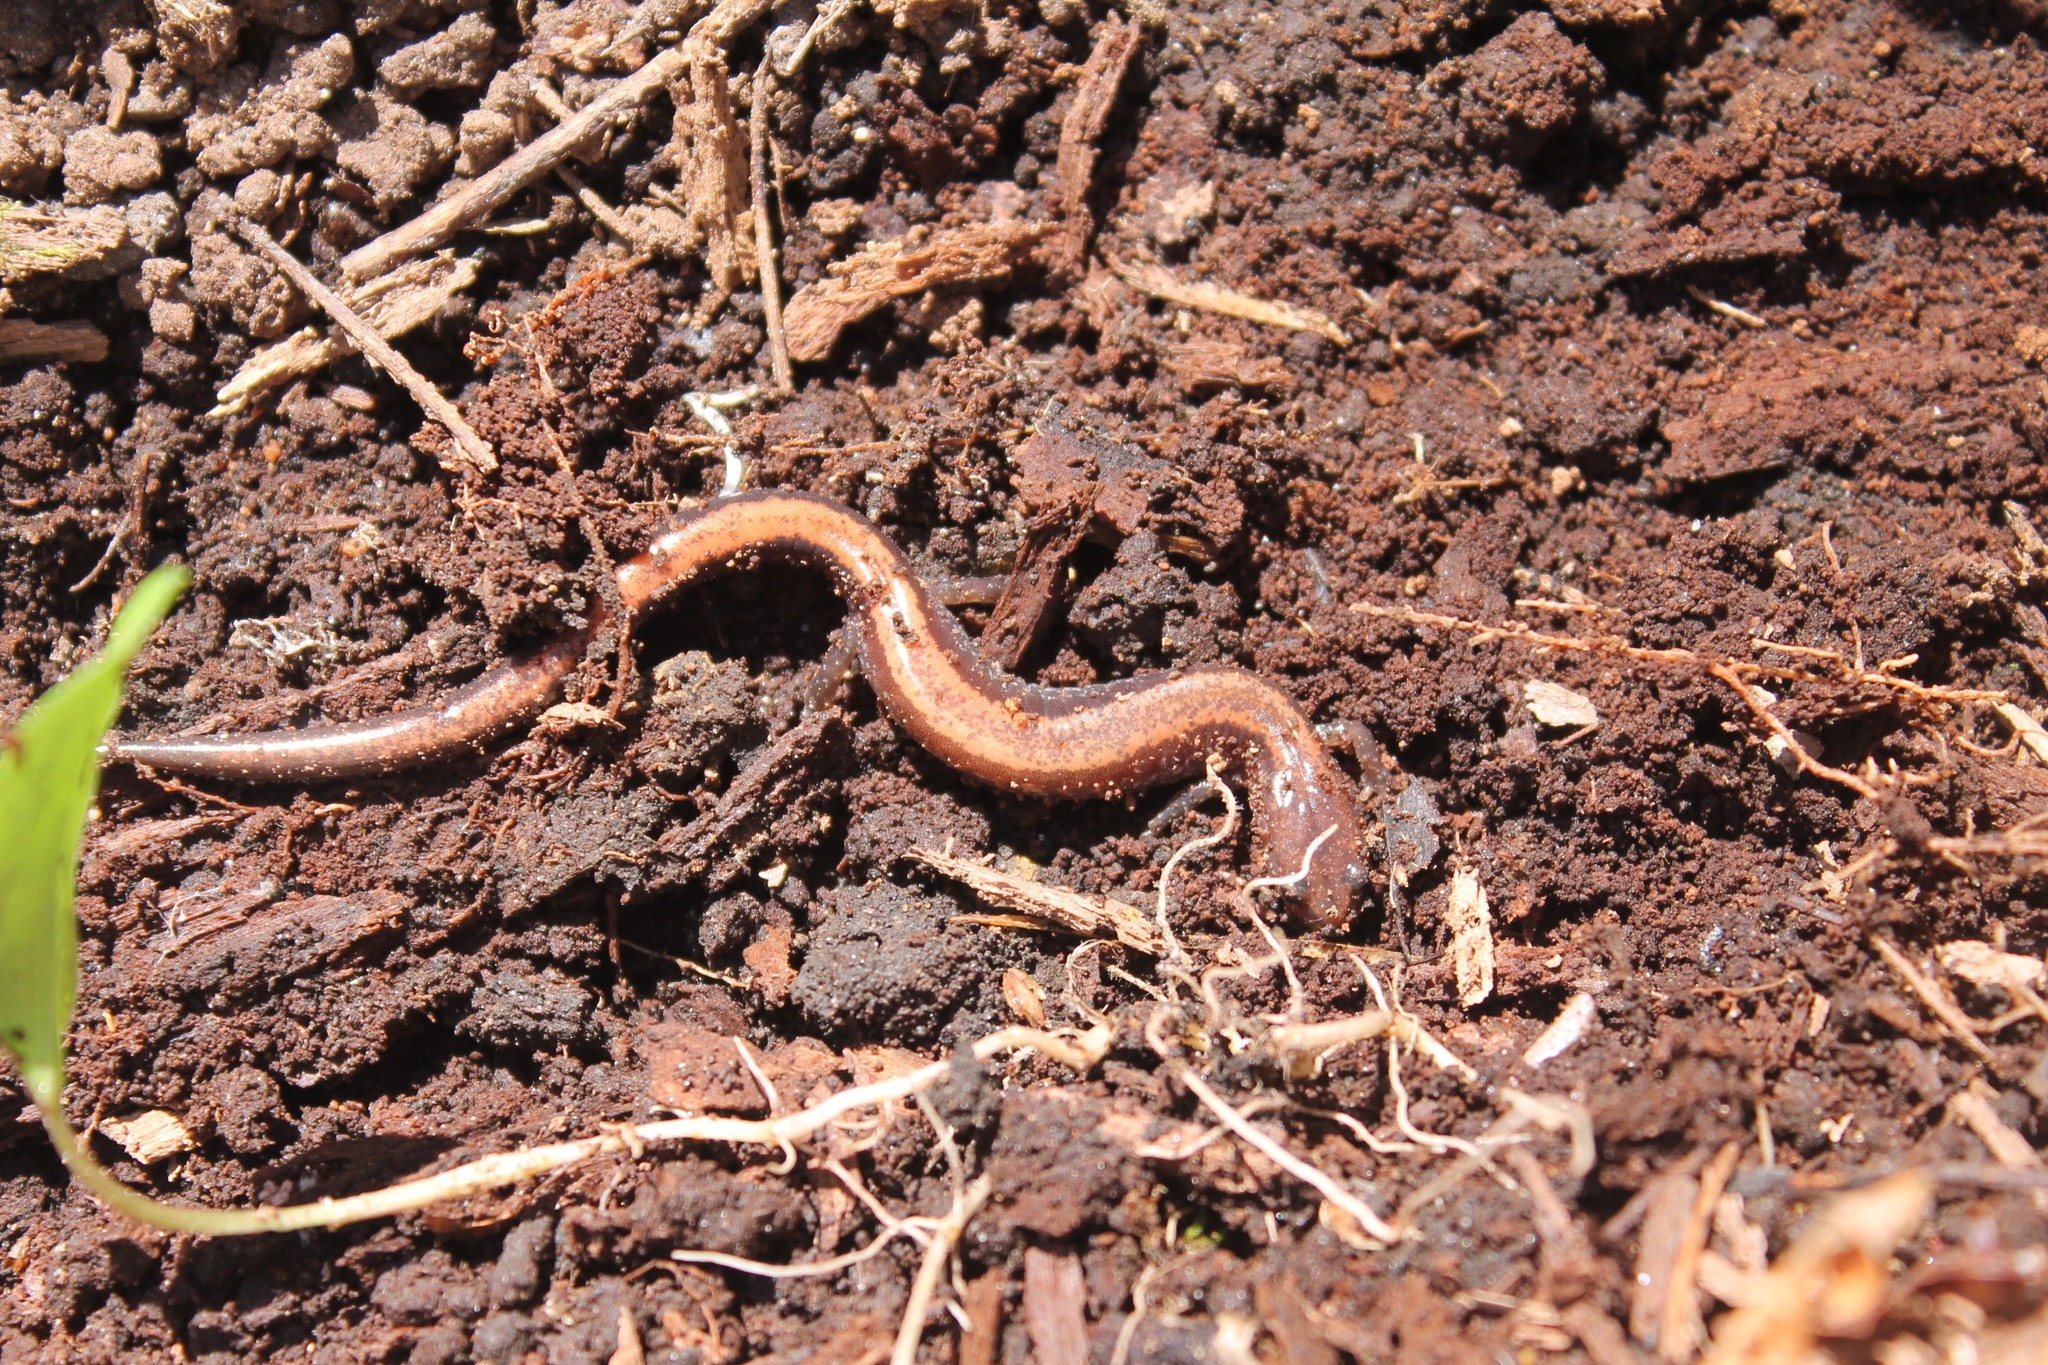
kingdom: Animalia
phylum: Chordata
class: Amphibia
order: Caudata
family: Plethodontidae
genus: Plethodon
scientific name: Plethodon cinereus
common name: Redback salamander
